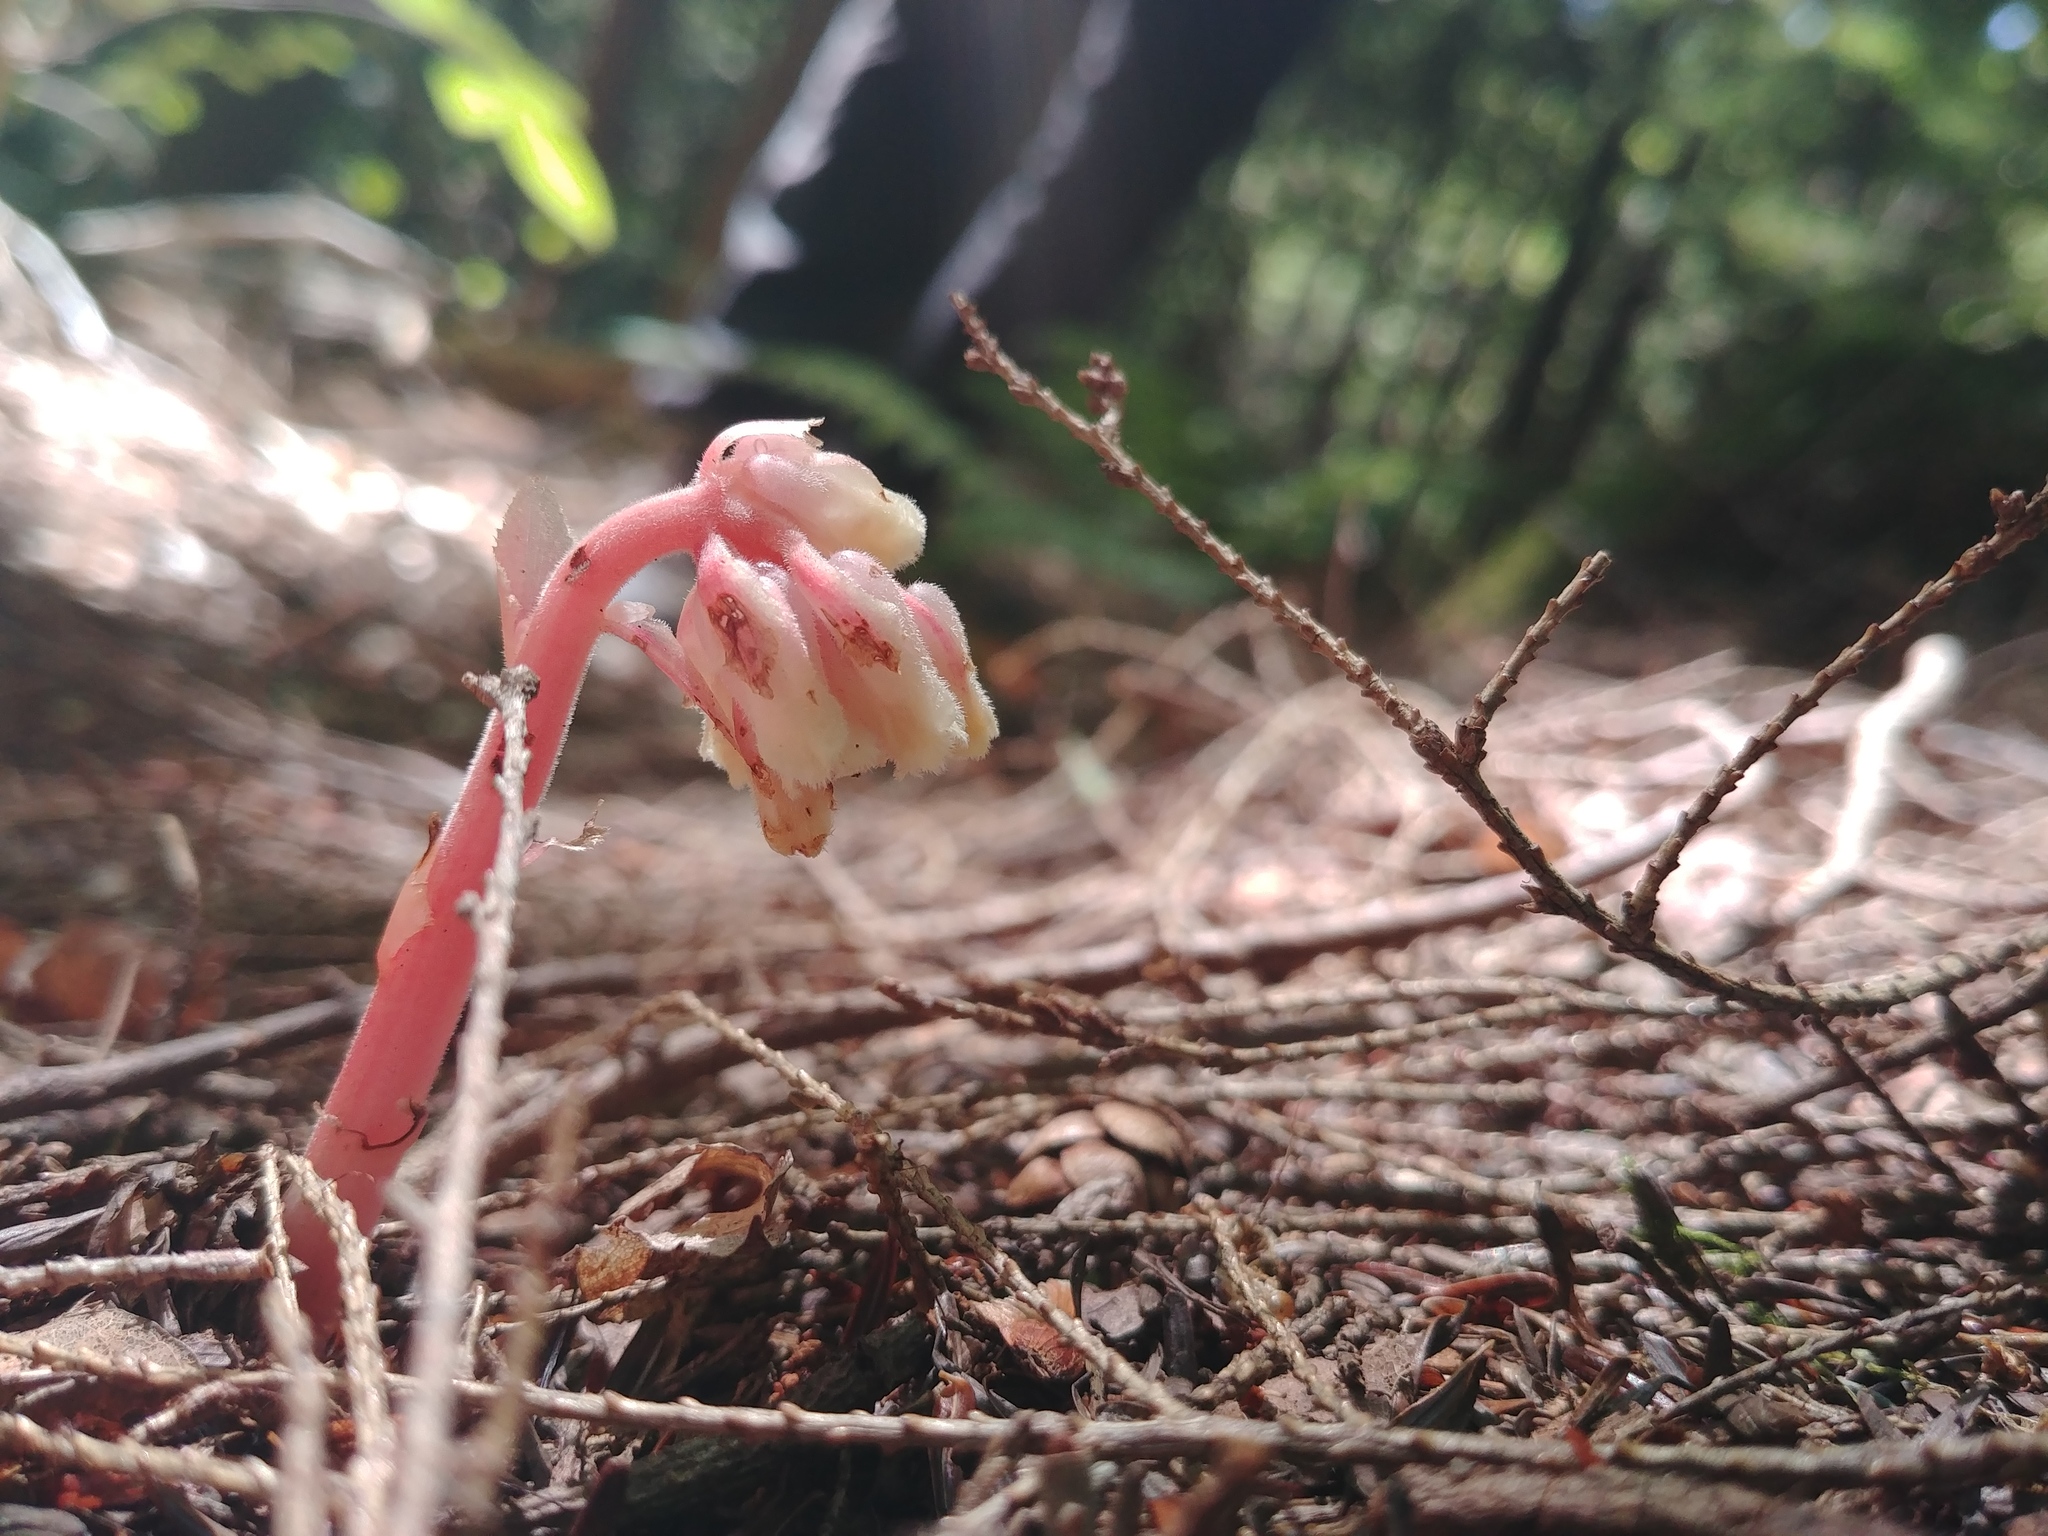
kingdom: Plantae
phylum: Tracheophyta
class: Magnoliopsida
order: Ericales
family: Ericaceae
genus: Hypopitys
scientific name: Hypopitys monotropa
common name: Yellow bird's-nest
